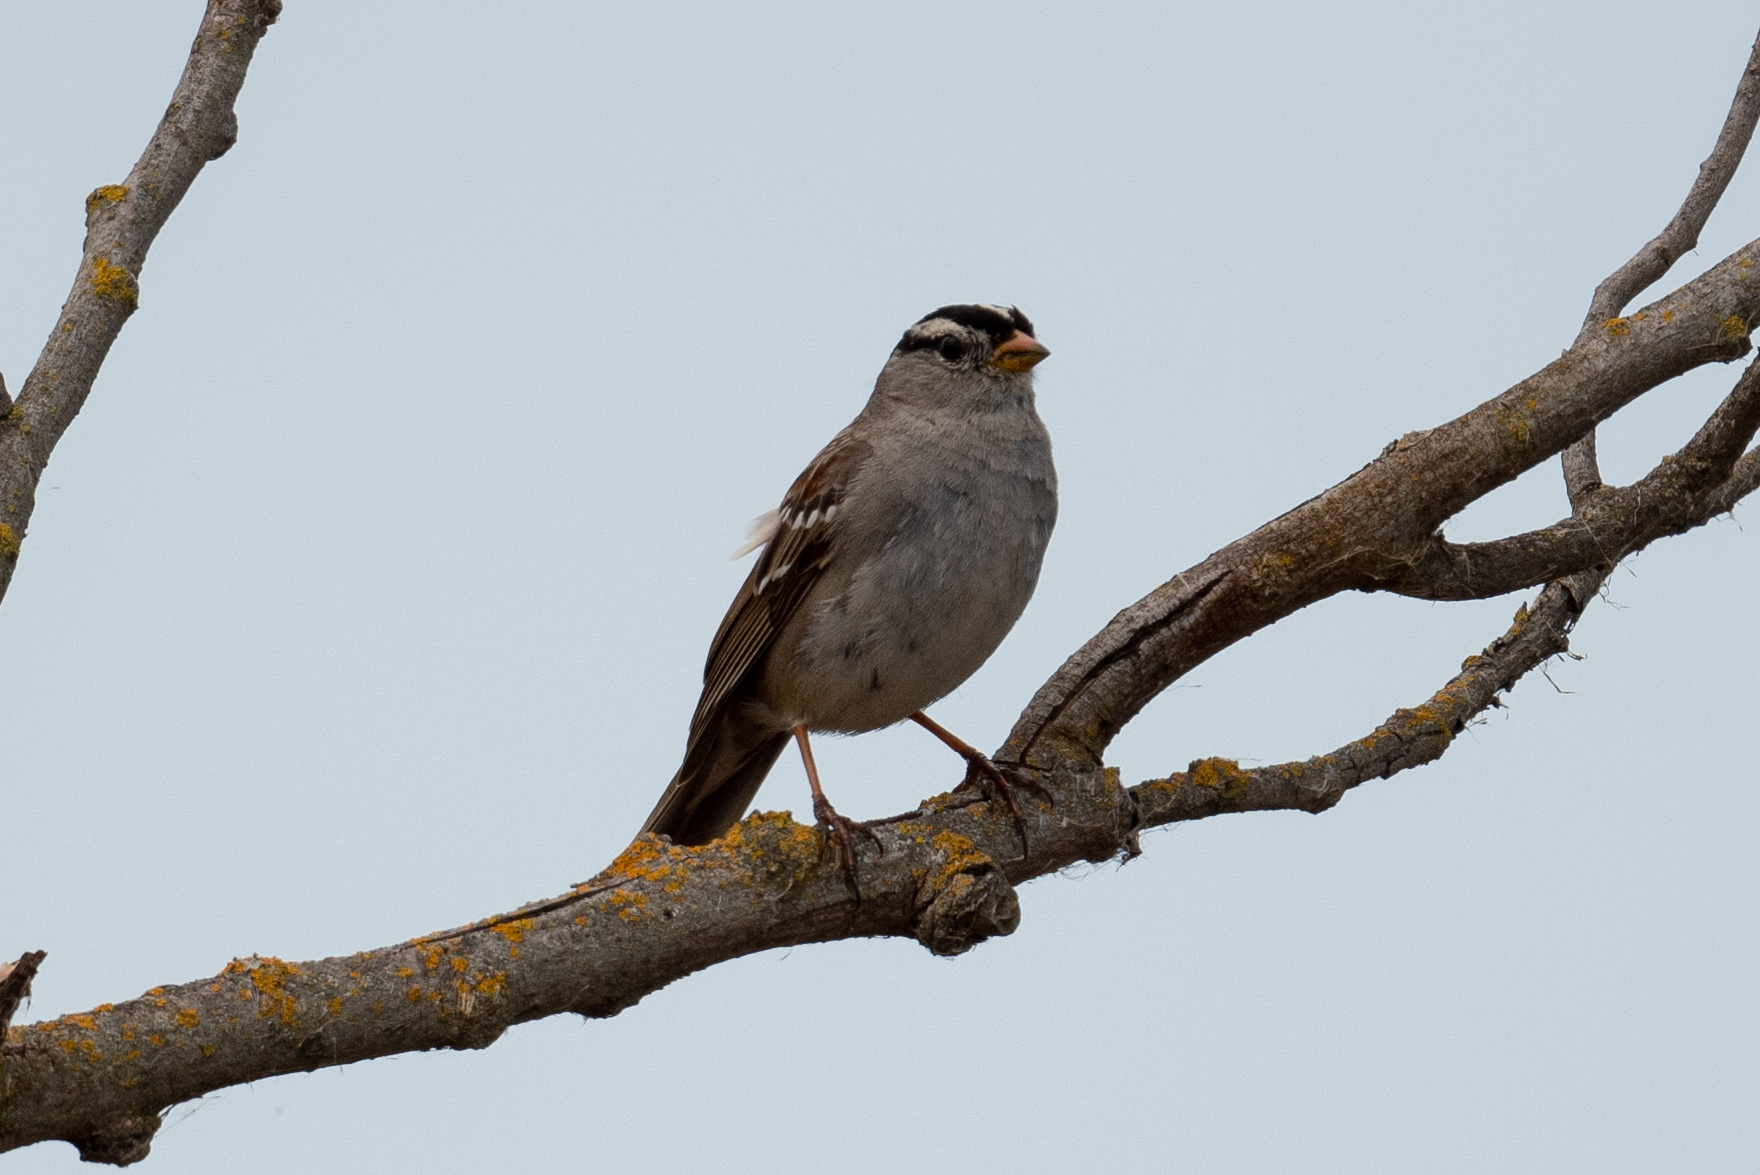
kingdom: Animalia
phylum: Chordata
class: Aves
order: Passeriformes
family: Passerellidae
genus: Zonotrichia
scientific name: Zonotrichia leucophrys
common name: White-crowned sparrow
